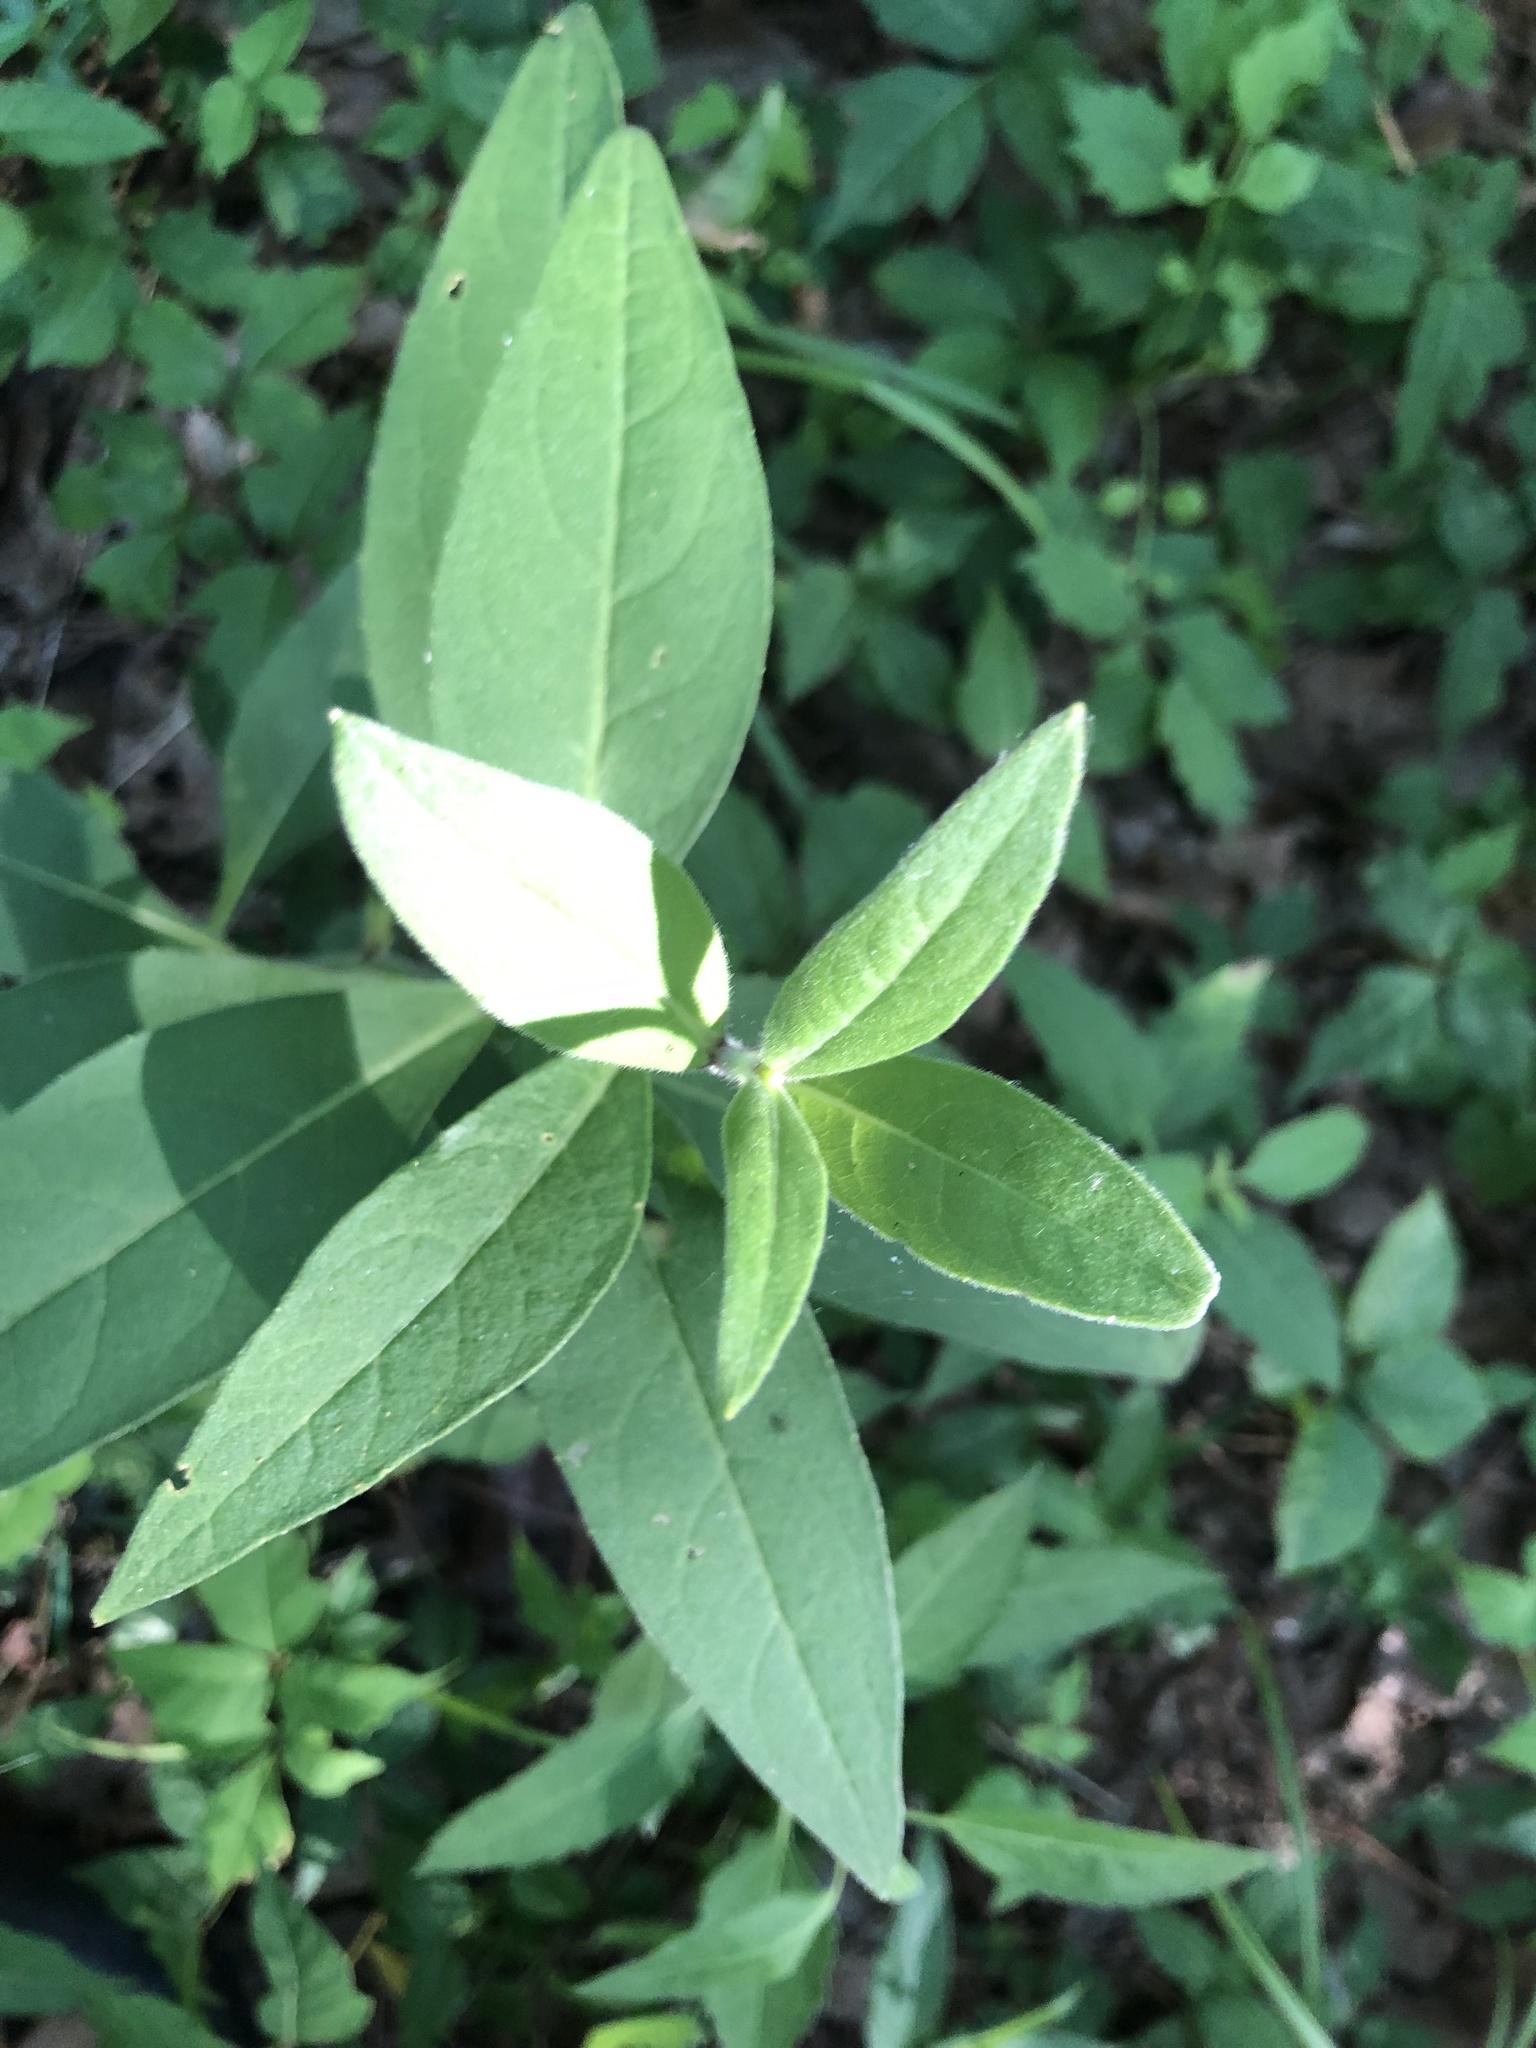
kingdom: Plantae
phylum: Tracheophyta
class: Magnoliopsida
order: Asterales
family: Asteraceae
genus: Silphium
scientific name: Silphium integrifolium
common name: Whole-leaf rosinweed
